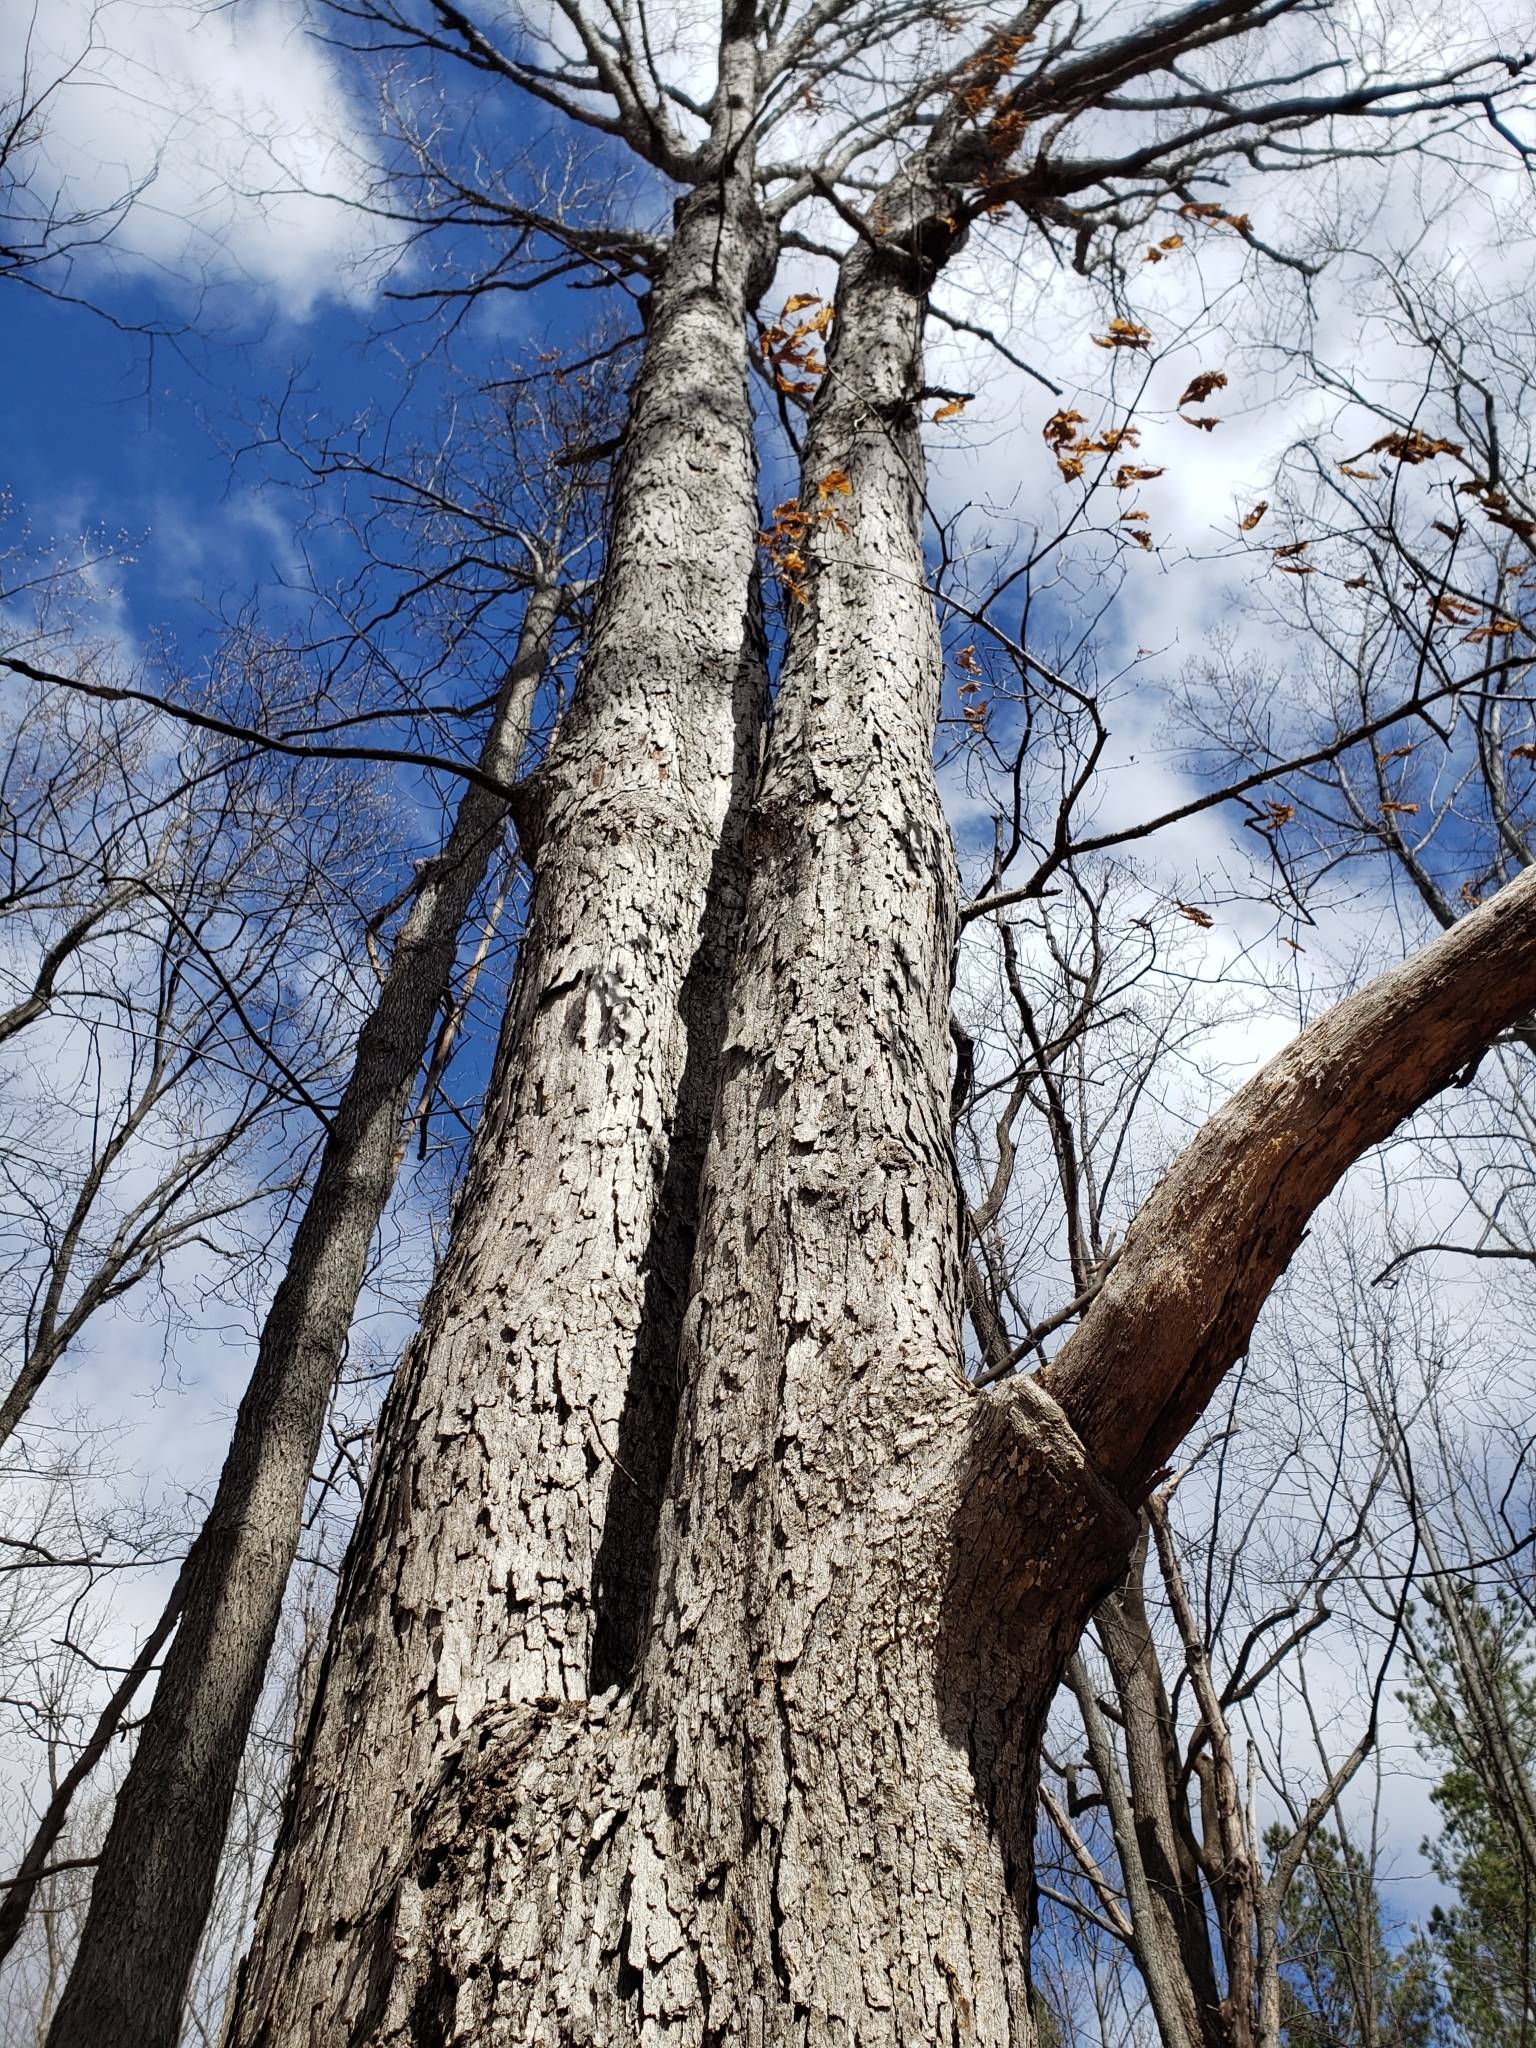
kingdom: Plantae
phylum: Tracheophyta
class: Magnoliopsida
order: Fagales
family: Fagaceae
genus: Quercus
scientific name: Quercus alba
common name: White oak
